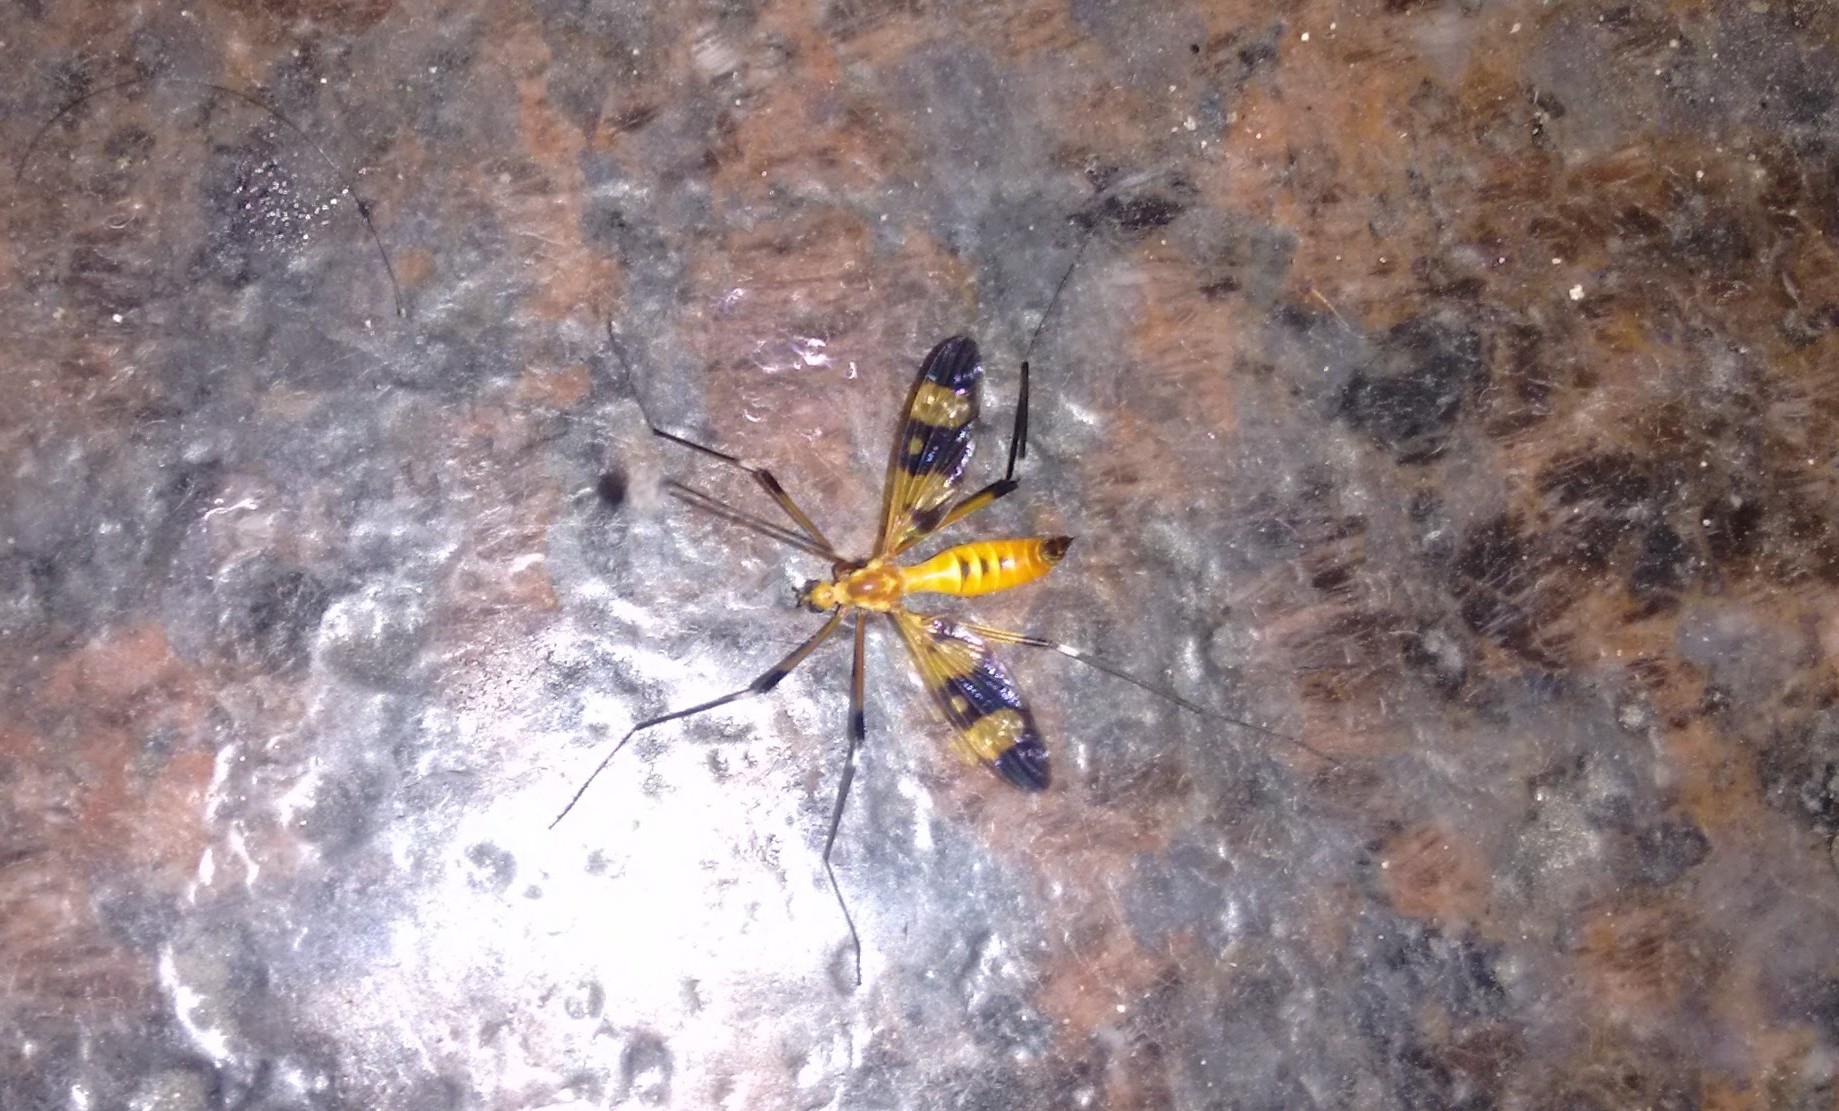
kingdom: Animalia
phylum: Arthropoda
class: Insecta
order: Diptera
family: Tipulidae
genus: Pselliophora
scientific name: Pselliophora laeta
